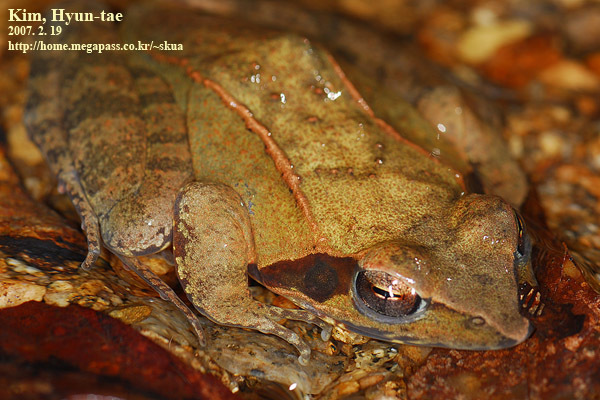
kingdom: Animalia
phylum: Chordata
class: Amphibia
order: Anura
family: Ranidae
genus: Rana
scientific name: Rana uenoi
